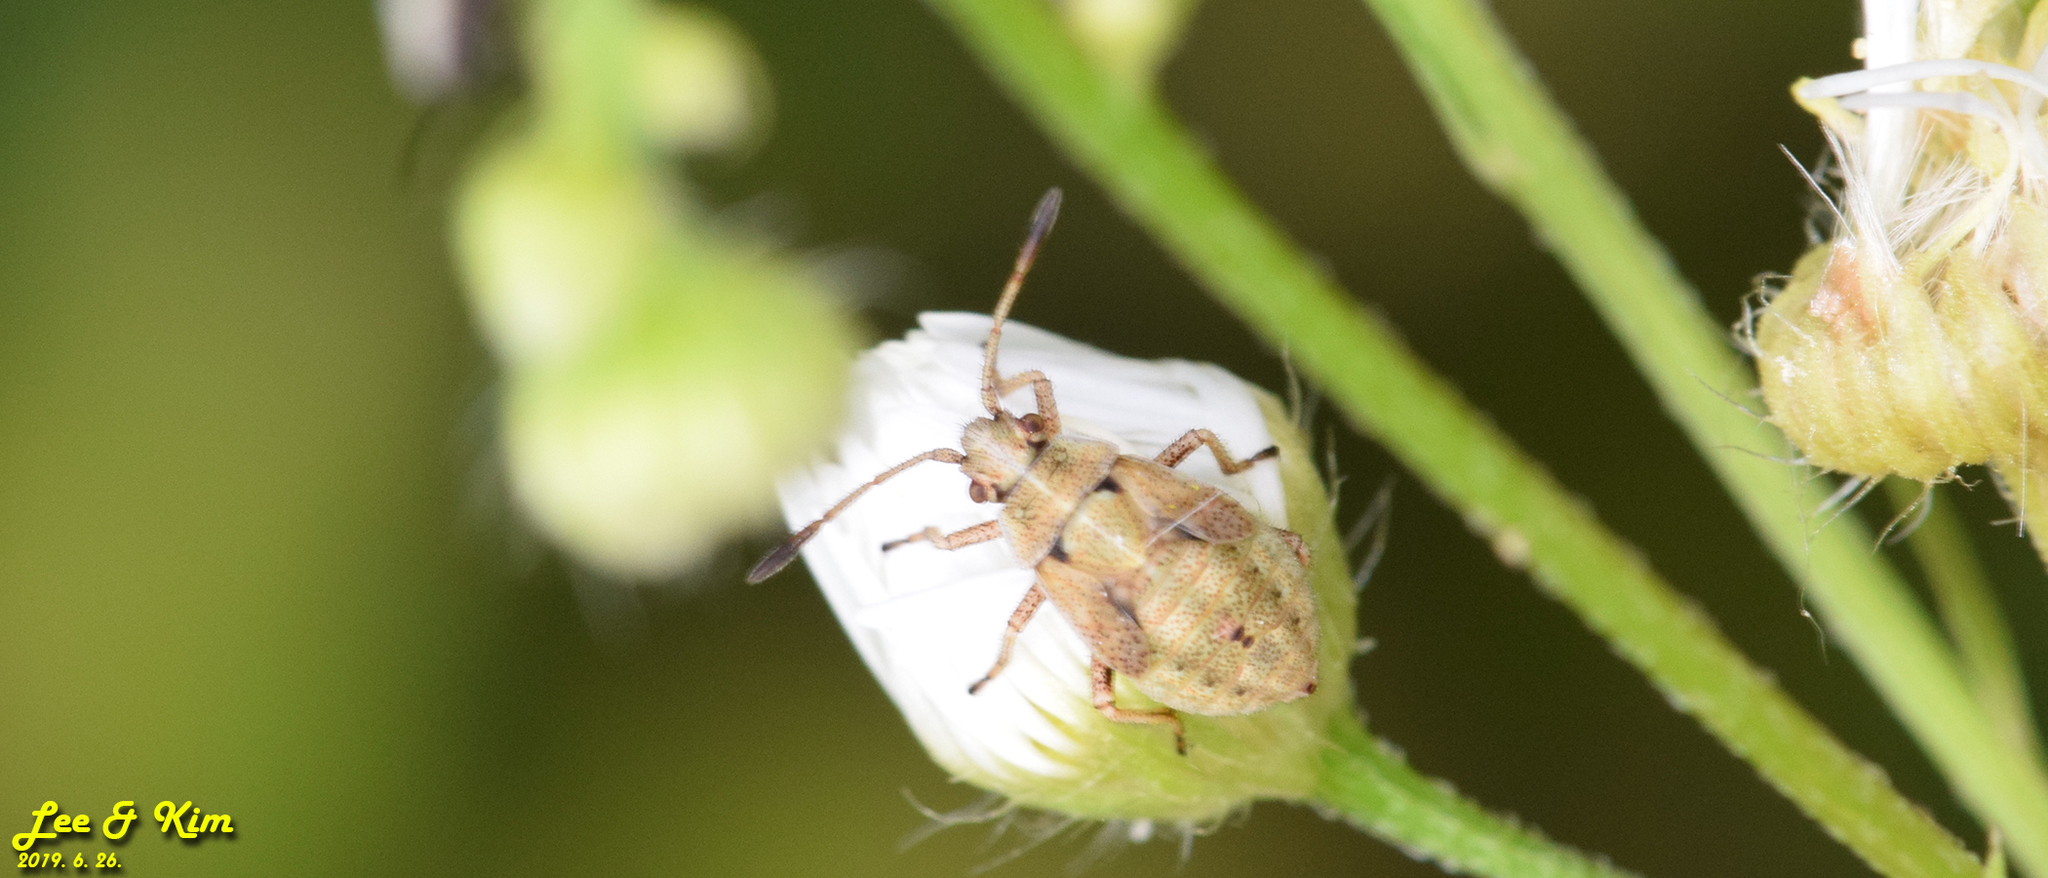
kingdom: Animalia
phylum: Arthropoda
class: Insecta
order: Hemiptera
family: Rhopalidae
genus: Stictopleurus
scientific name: Stictopleurus minutus
